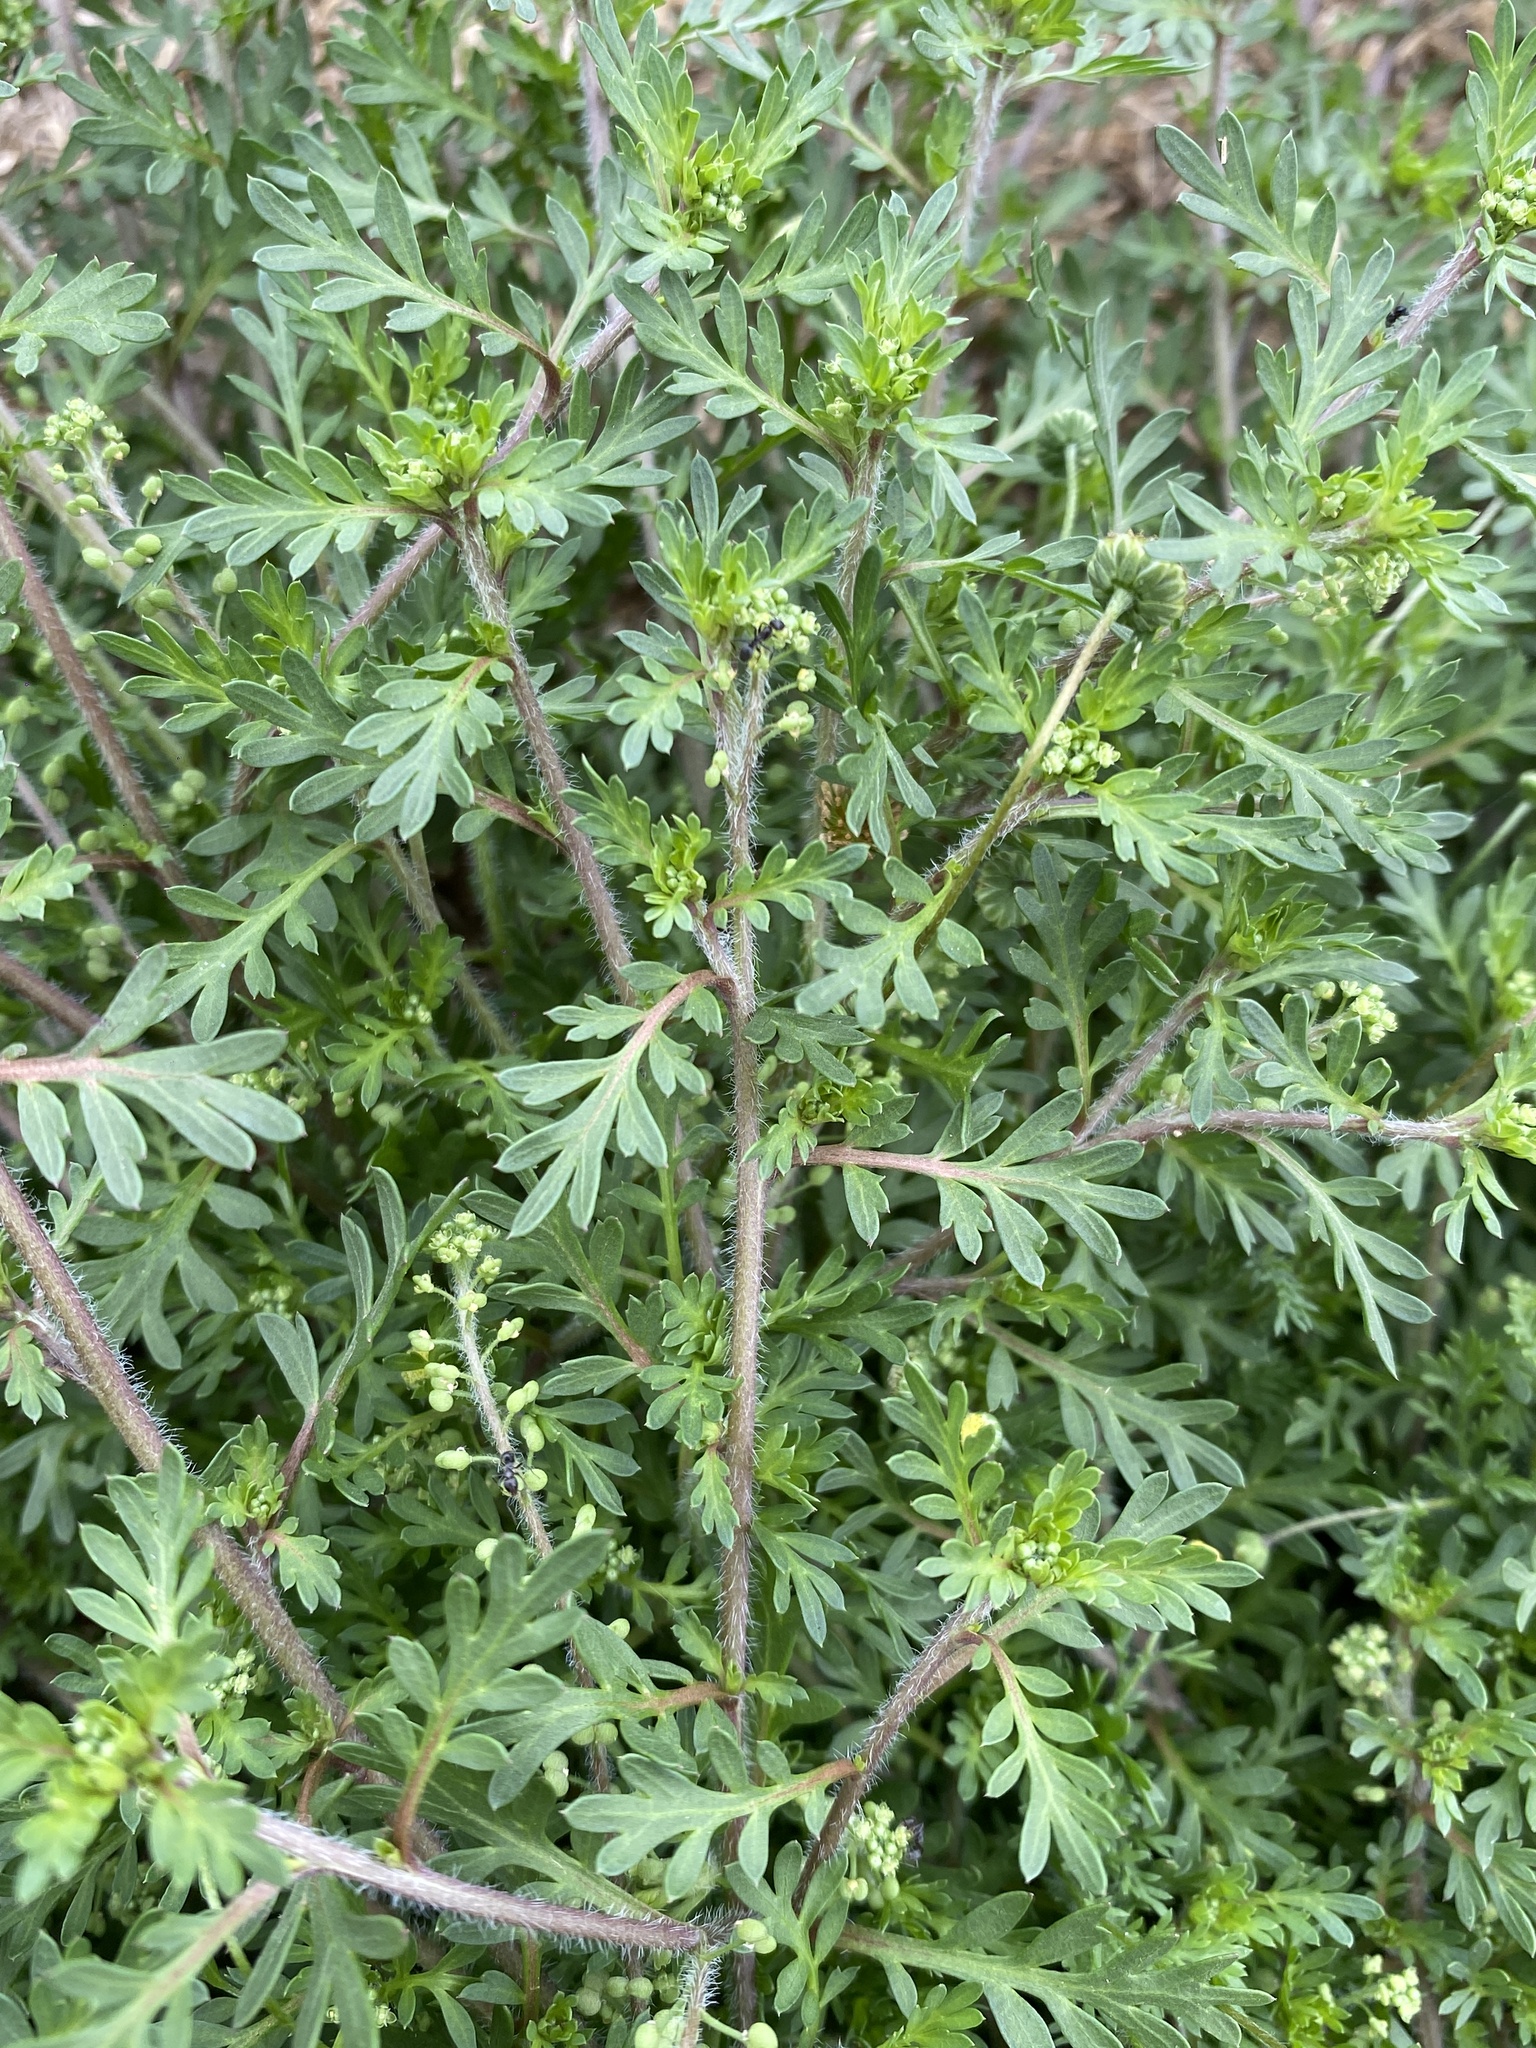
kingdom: Plantae
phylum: Tracheophyta
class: Magnoliopsida
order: Brassicales
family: Brassicaceae
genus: Lepidium
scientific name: Lepidium didymum
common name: Lesser swinecress
